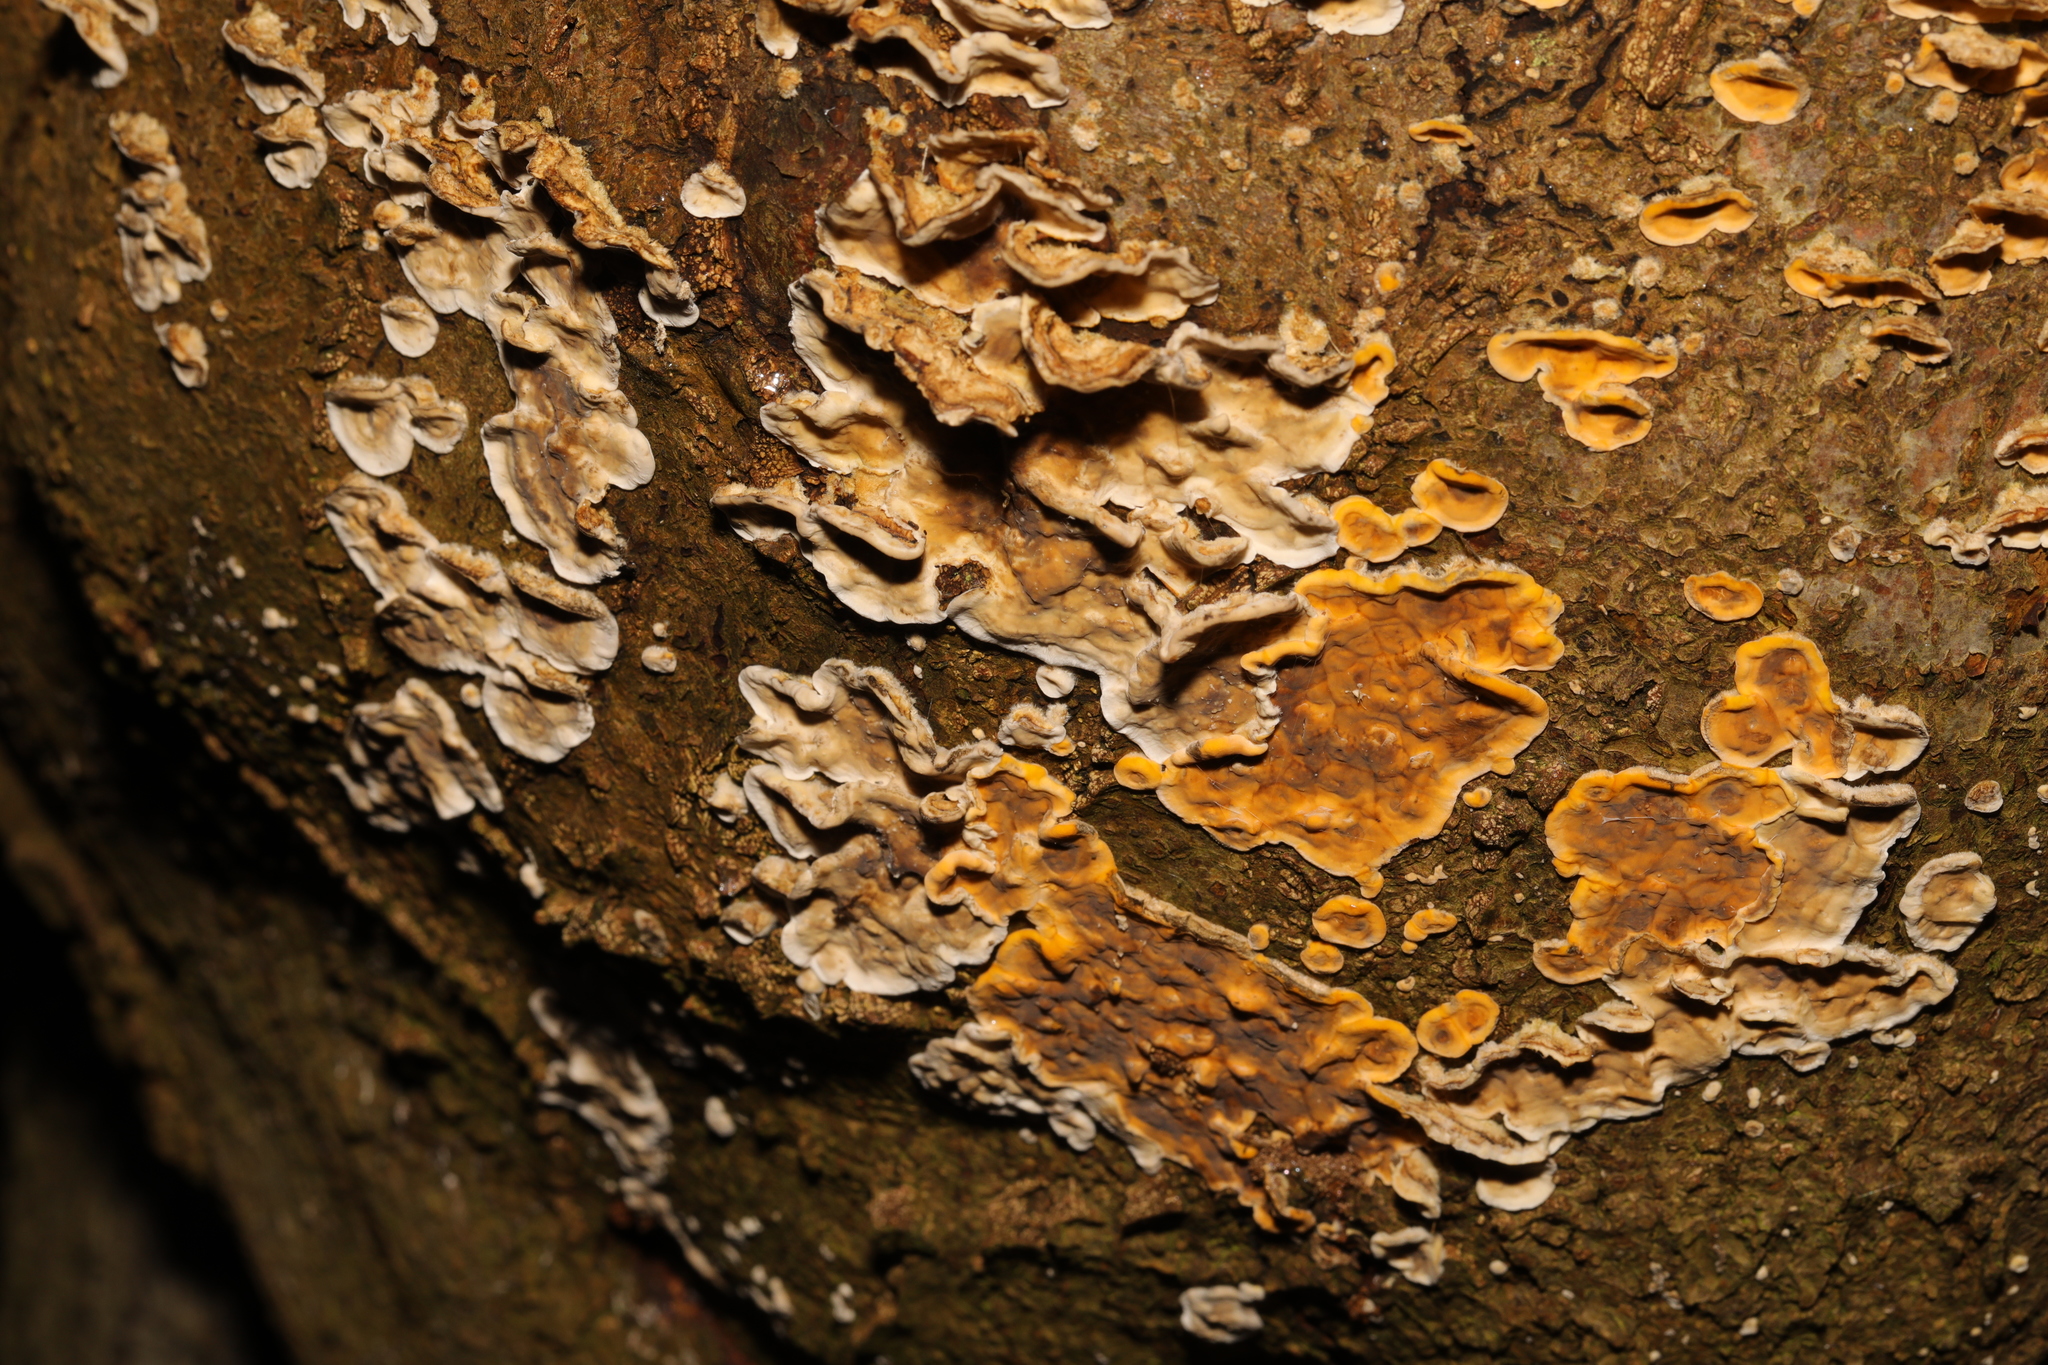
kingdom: Fungi
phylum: Basidiomycota
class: Agaricomycetes
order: Russulales
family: Stereaceae
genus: Stereum
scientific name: Stereum hirsutum
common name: Hairy curtain crust
